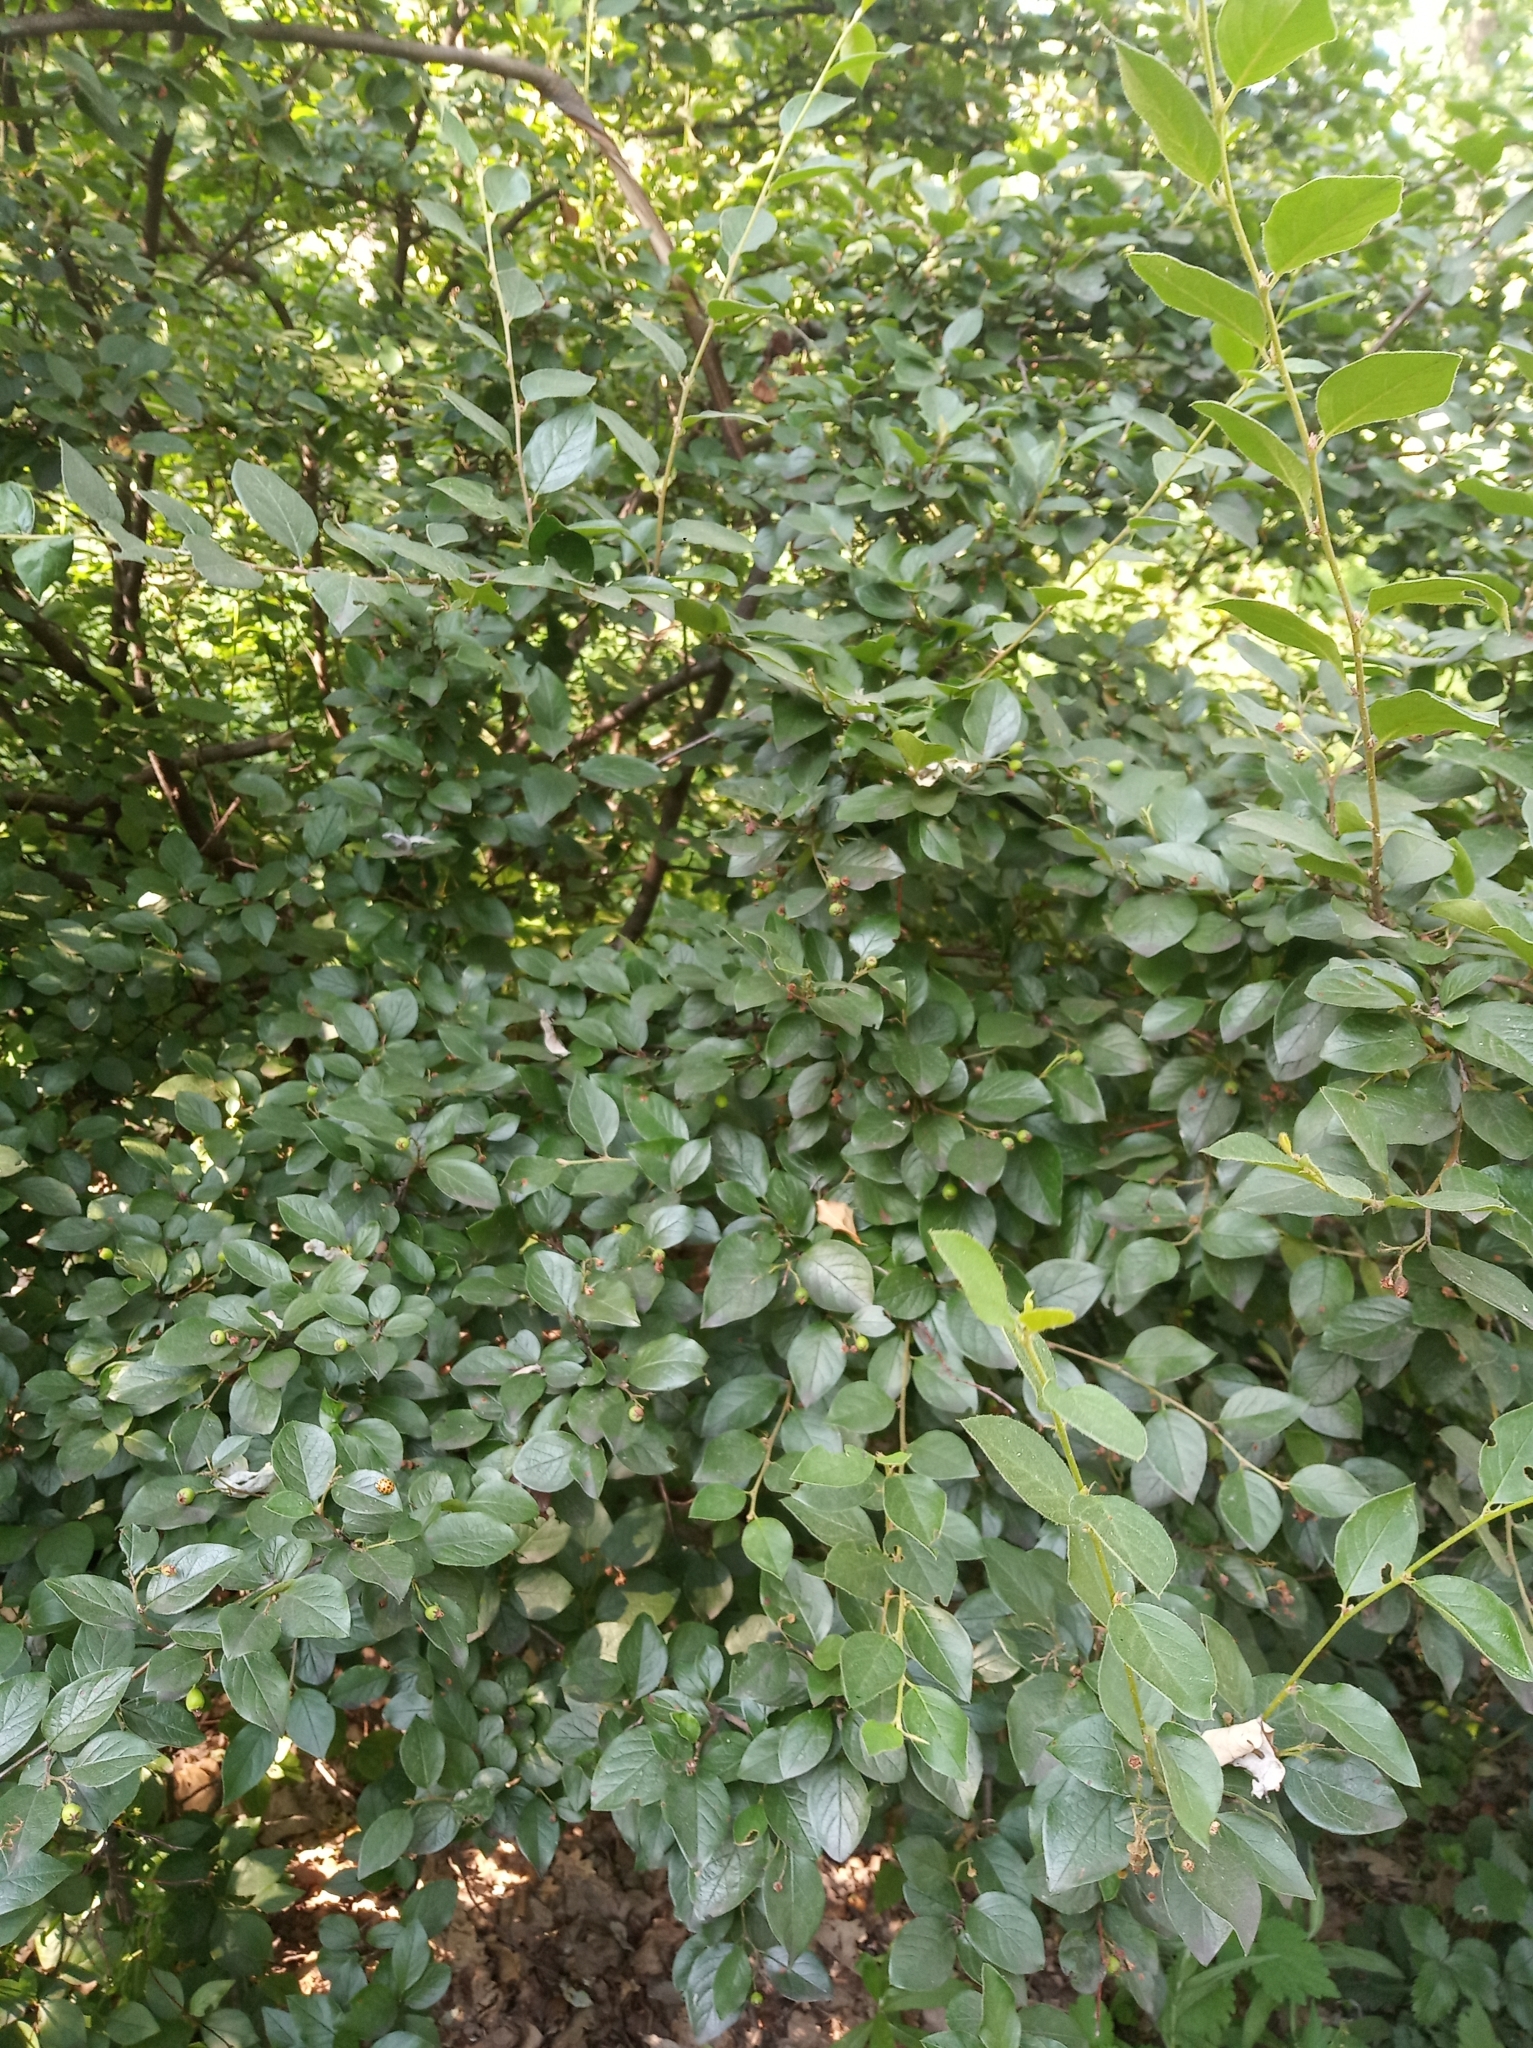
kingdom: Plantae
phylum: Tracheophyta
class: Magnoliopsida
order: Rosales
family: Rosaceae
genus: Cotoneaster
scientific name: Cotoneaster acutifolius
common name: Peking cotoneaster
